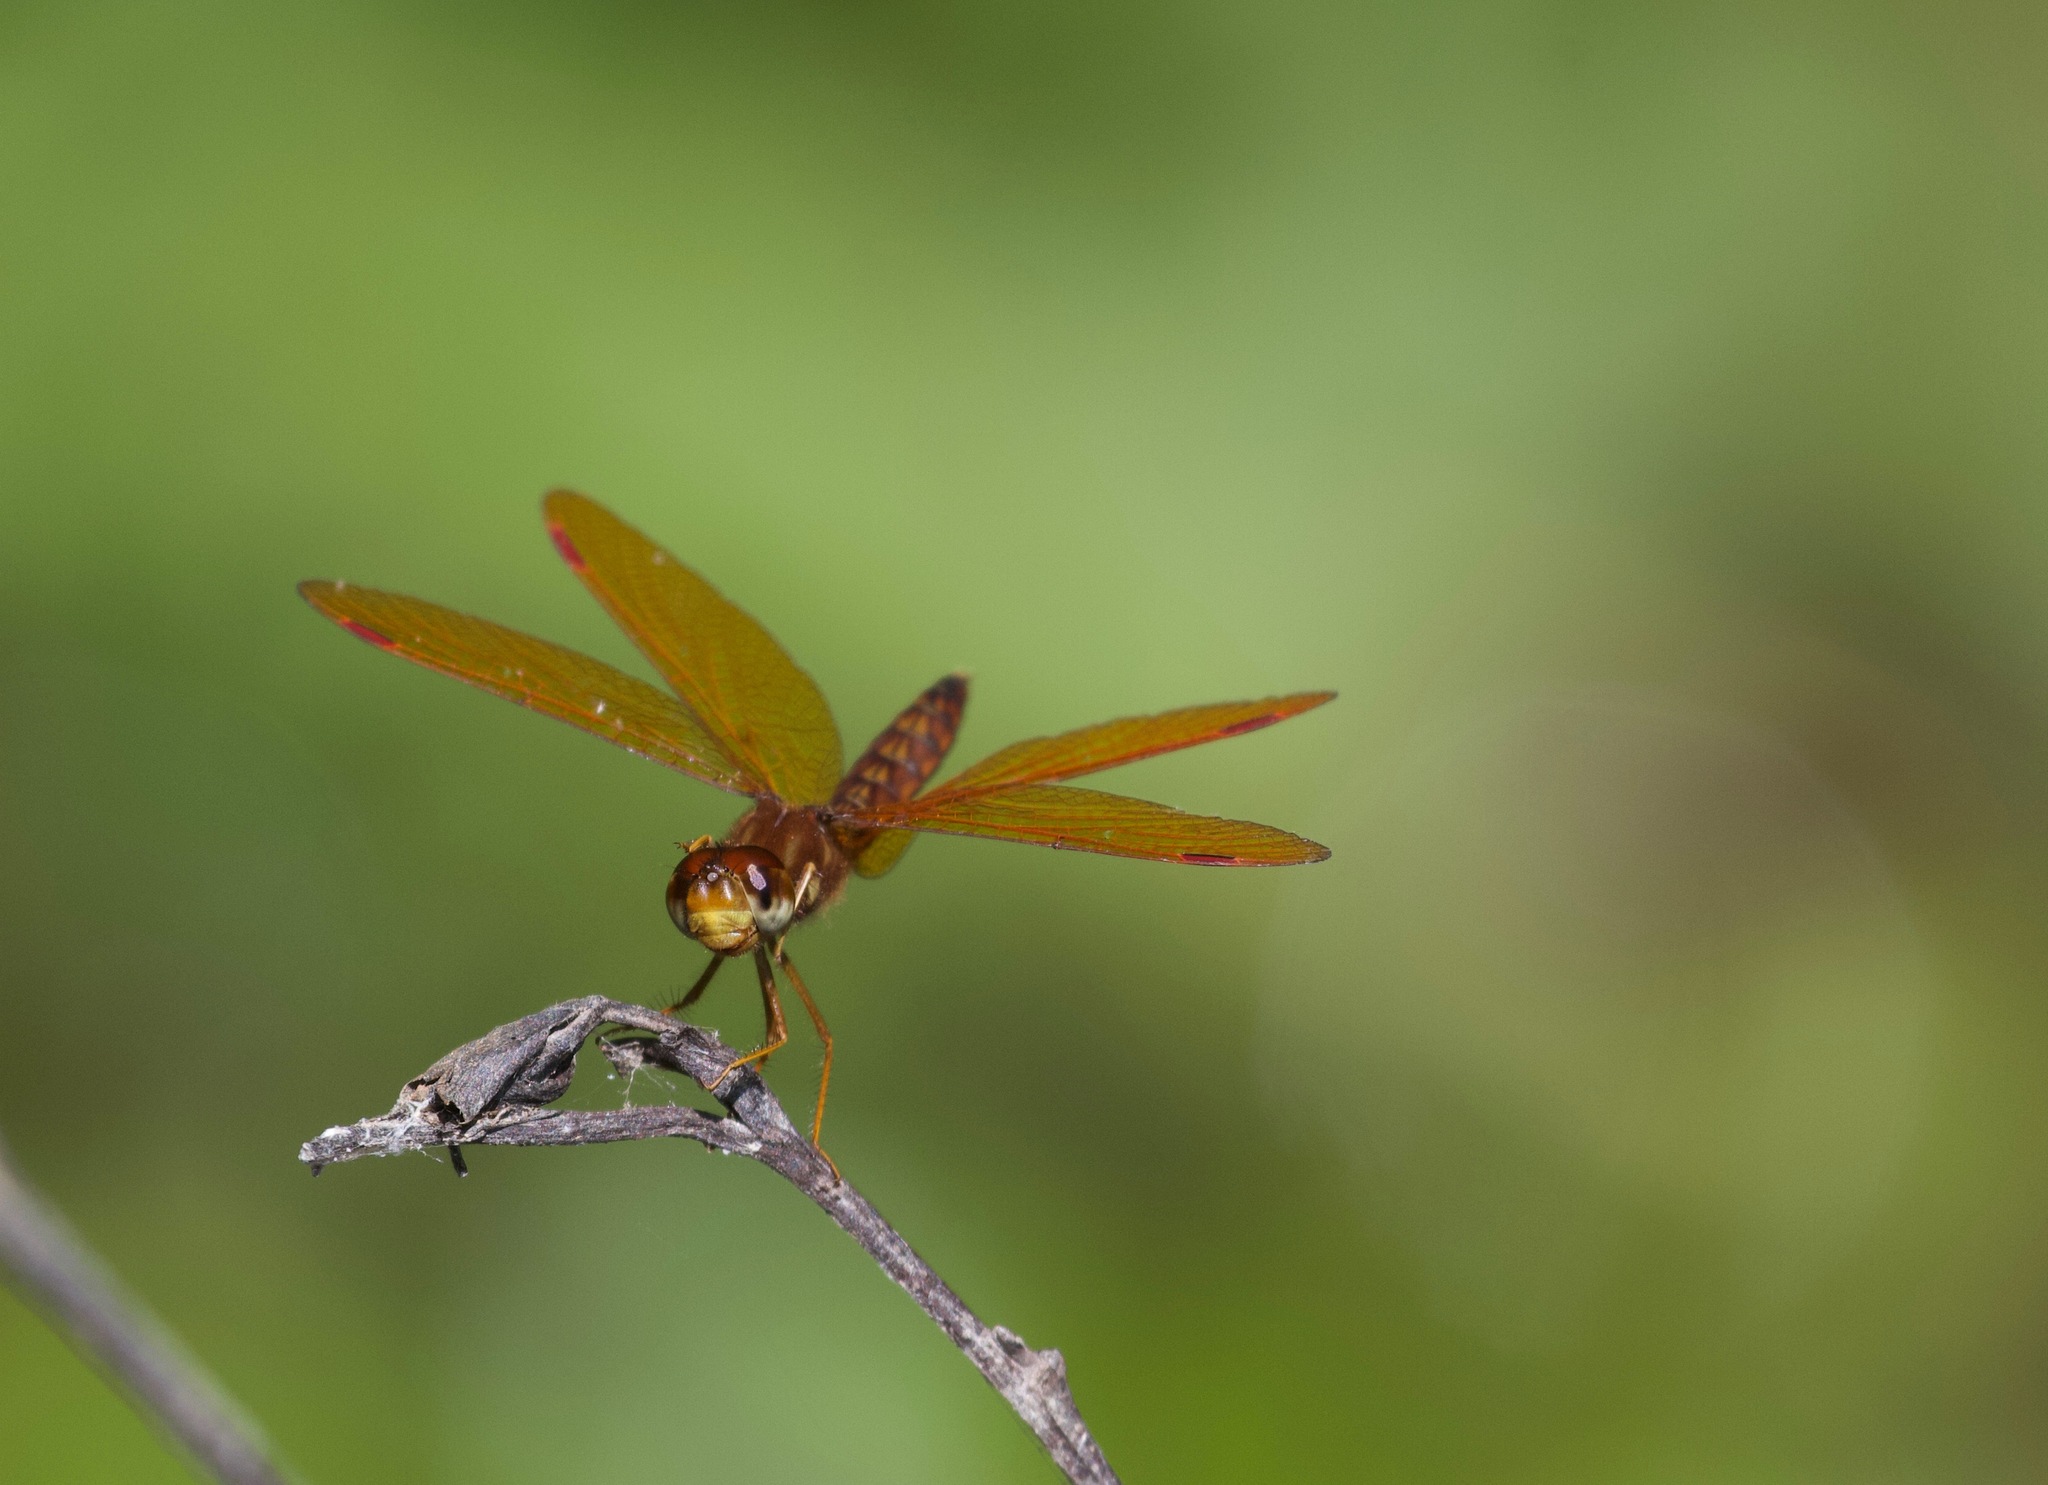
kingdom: Animalia
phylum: Arthropoda
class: Insecta
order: Odonata
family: Libellulidae
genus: Perithemis
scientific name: Perithemis tenera
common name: Eastern amberwing
